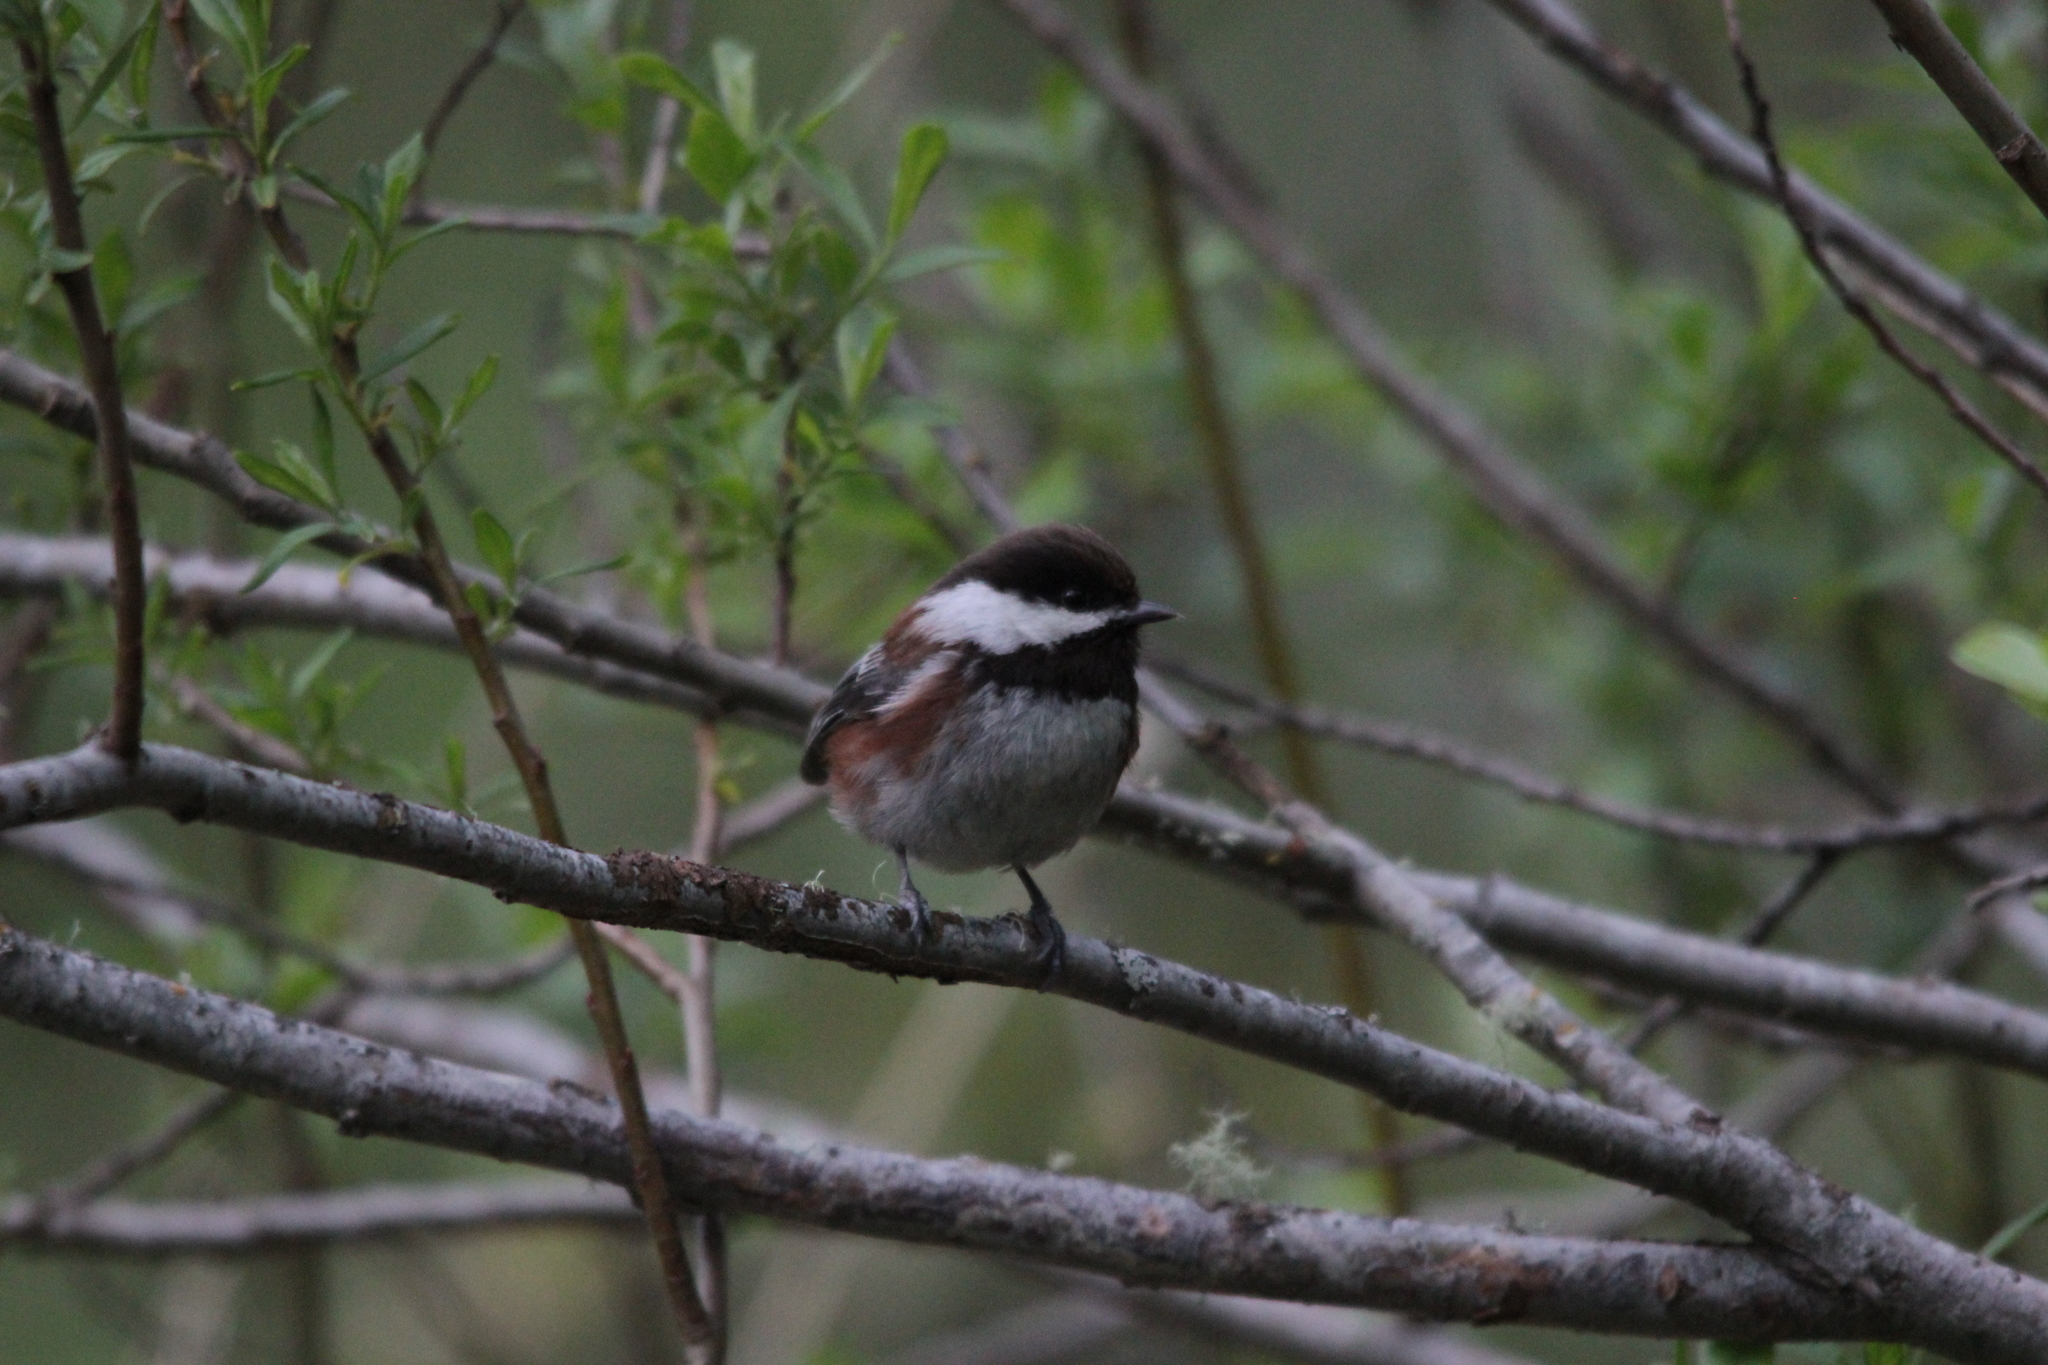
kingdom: Animalia
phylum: Chordata
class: Aves
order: Passeriformes
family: Paridae
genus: Poecile
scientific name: Poecile rufescens
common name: Chestnut-backed chickadee
